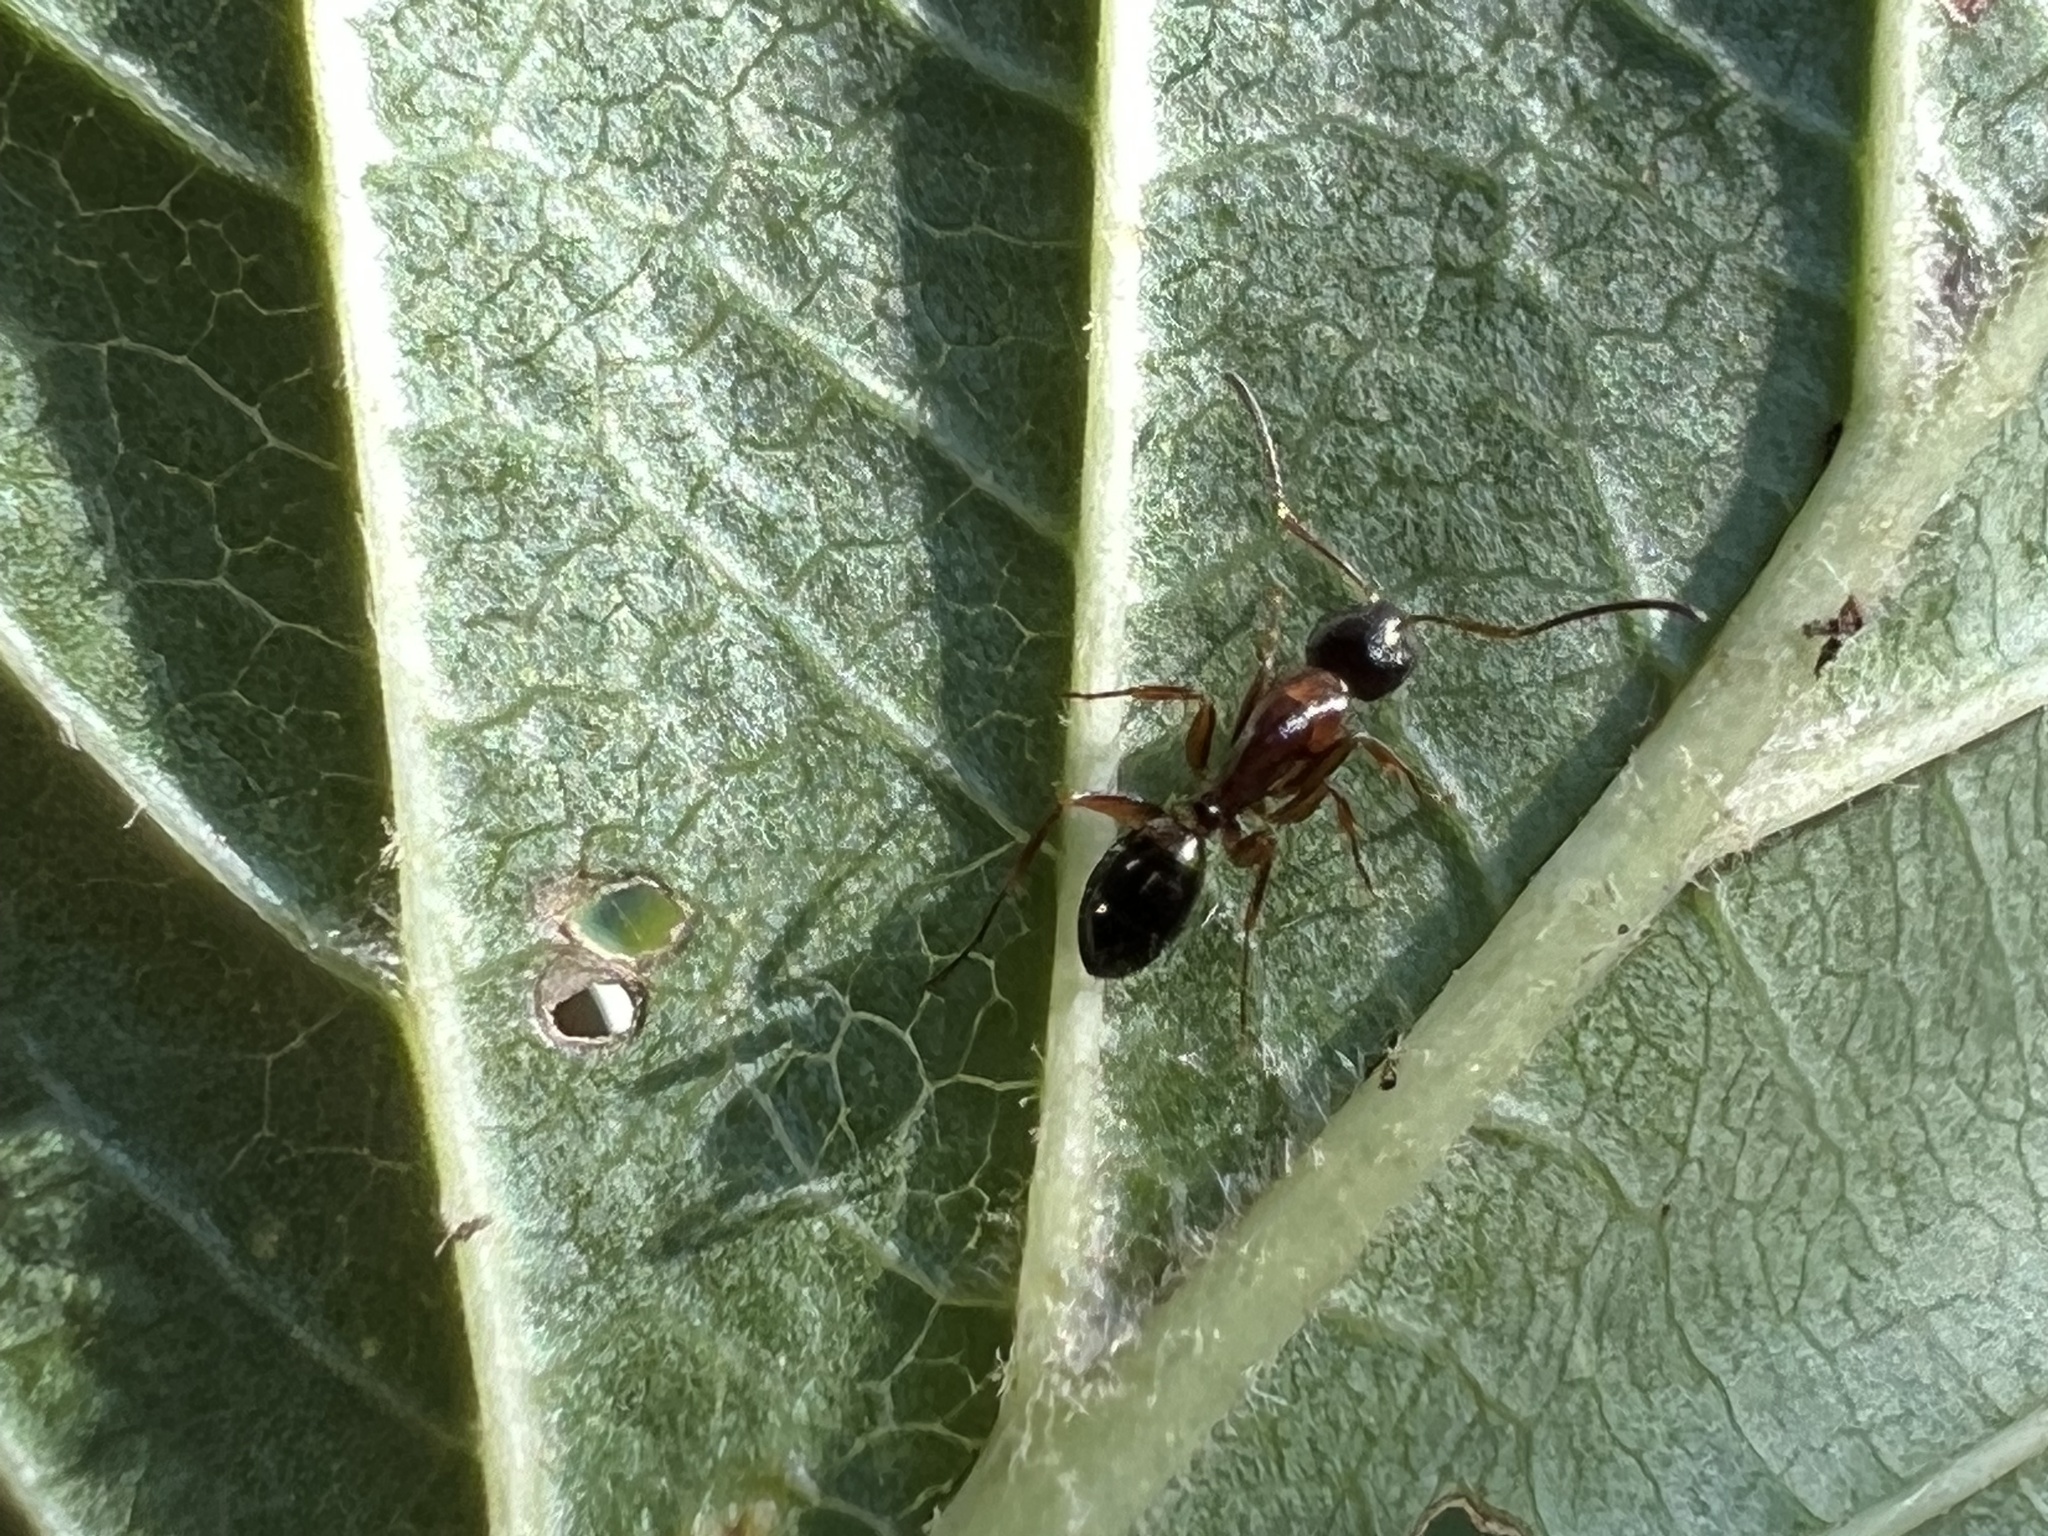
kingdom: Animalia
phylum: Arthropoda
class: Insecta
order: Hymenoptera
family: Formicidae
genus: Camponotus
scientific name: Camponotus nearcticus
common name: Smaller carpenter ant
